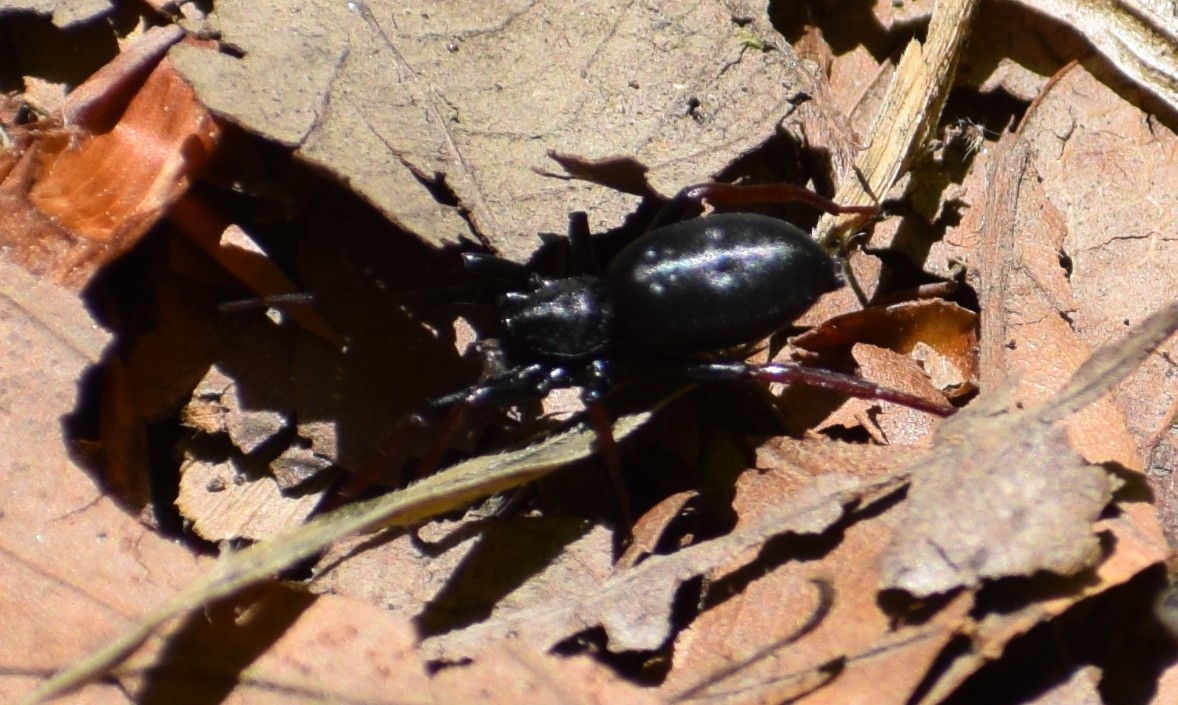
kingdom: Animalia
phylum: Arthropoda
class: Arachnida
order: Araneae
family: Gnaphosidae
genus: Trachyzelotes
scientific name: Trachyzelotes pedestris
